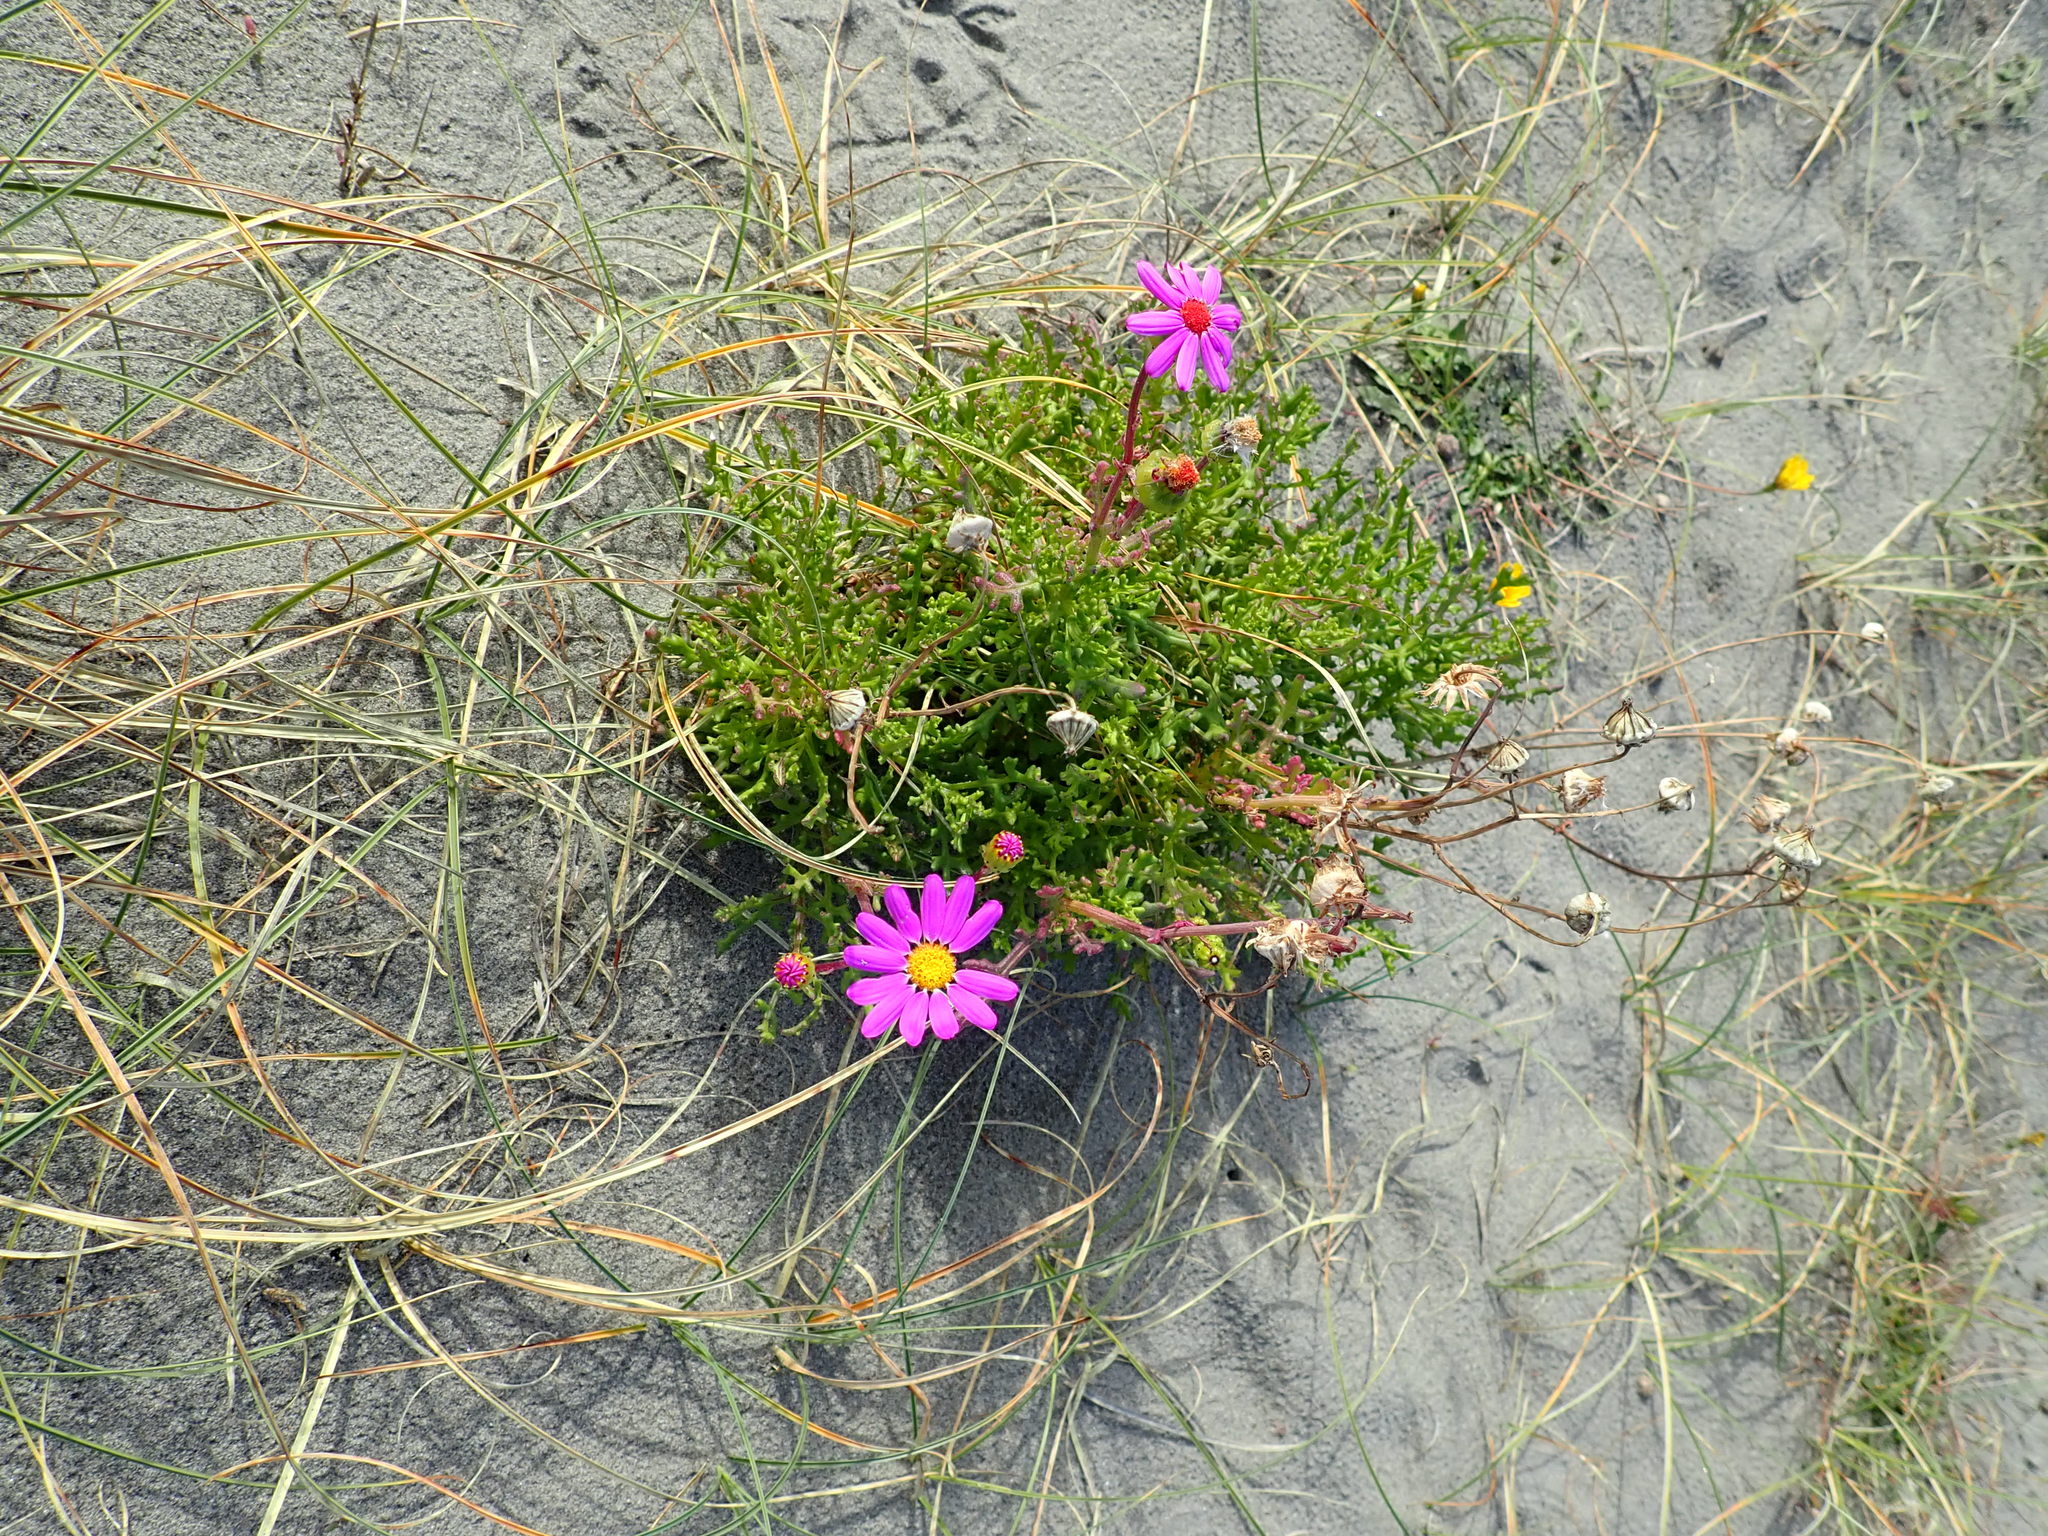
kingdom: Plantae
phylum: Tracheophyta
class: Magnoliopsida
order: Asterales
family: Asteraceae
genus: Senecio
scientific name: Senecio elegans
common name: Purple groundsel
